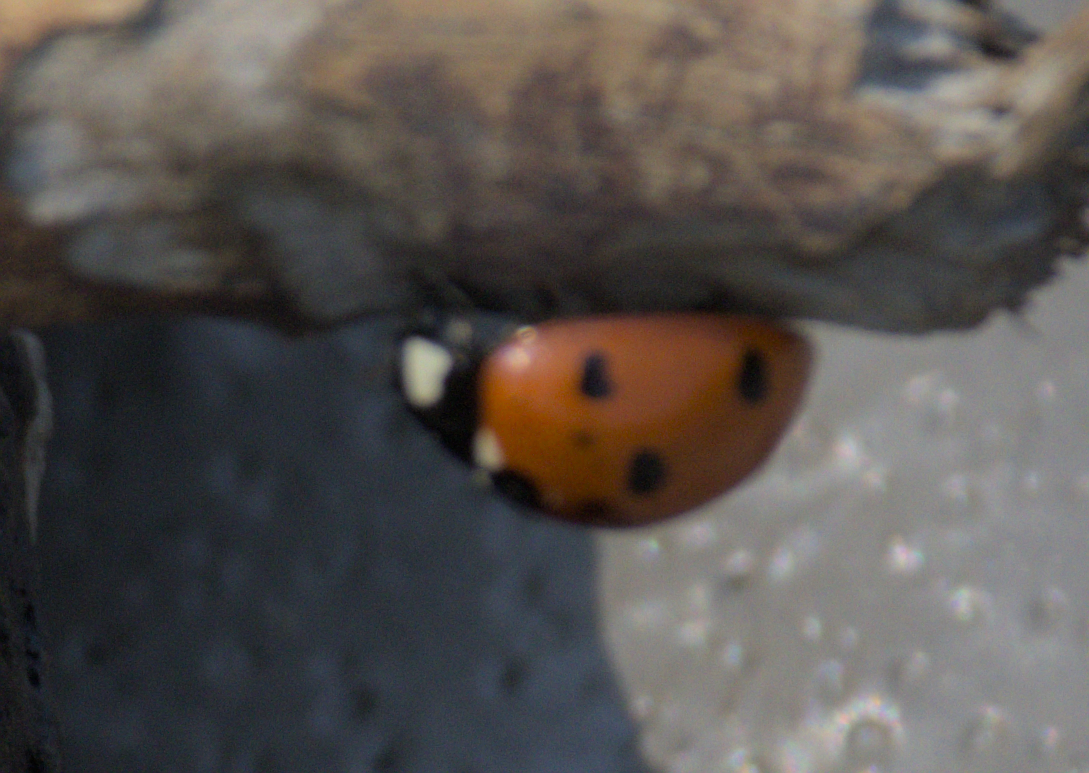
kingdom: Animalia
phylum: Arthropoda
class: Insecta
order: Coleoptera
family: Coccinellidae
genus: Coccinella
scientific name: Coccinella septempunctata
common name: Sevenspotted lady beetle
